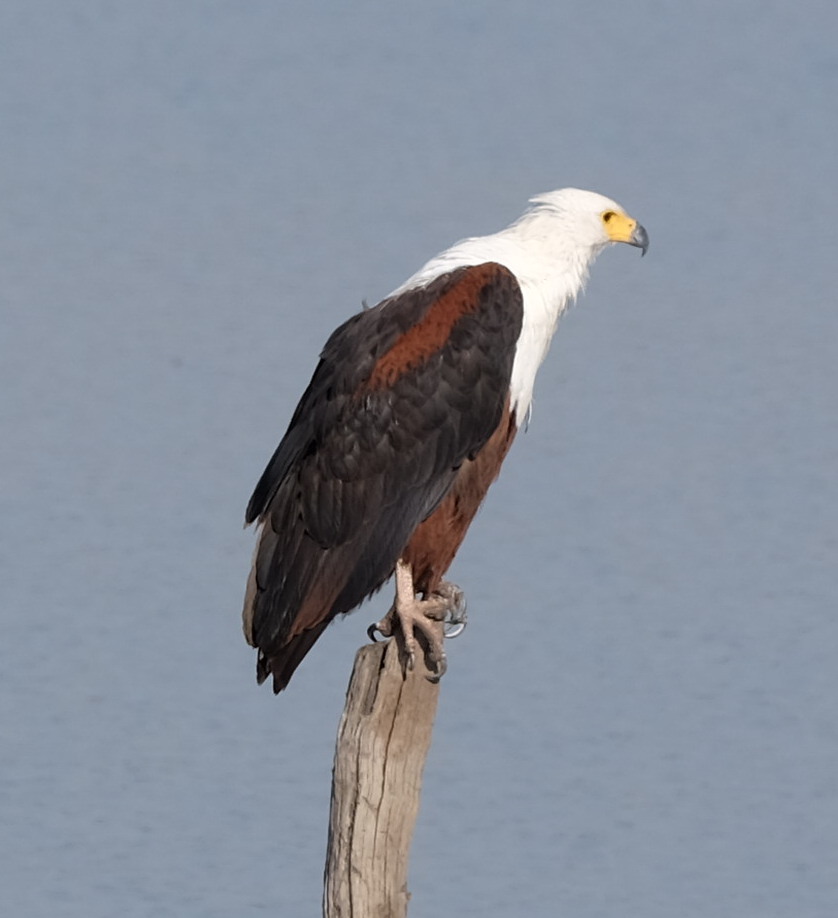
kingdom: Animalia
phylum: Chordata
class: Aves
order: Accipitriformes
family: Accipitridae
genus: Haliaeetus
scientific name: Haliaeetus vocifer
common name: African fish eagle
